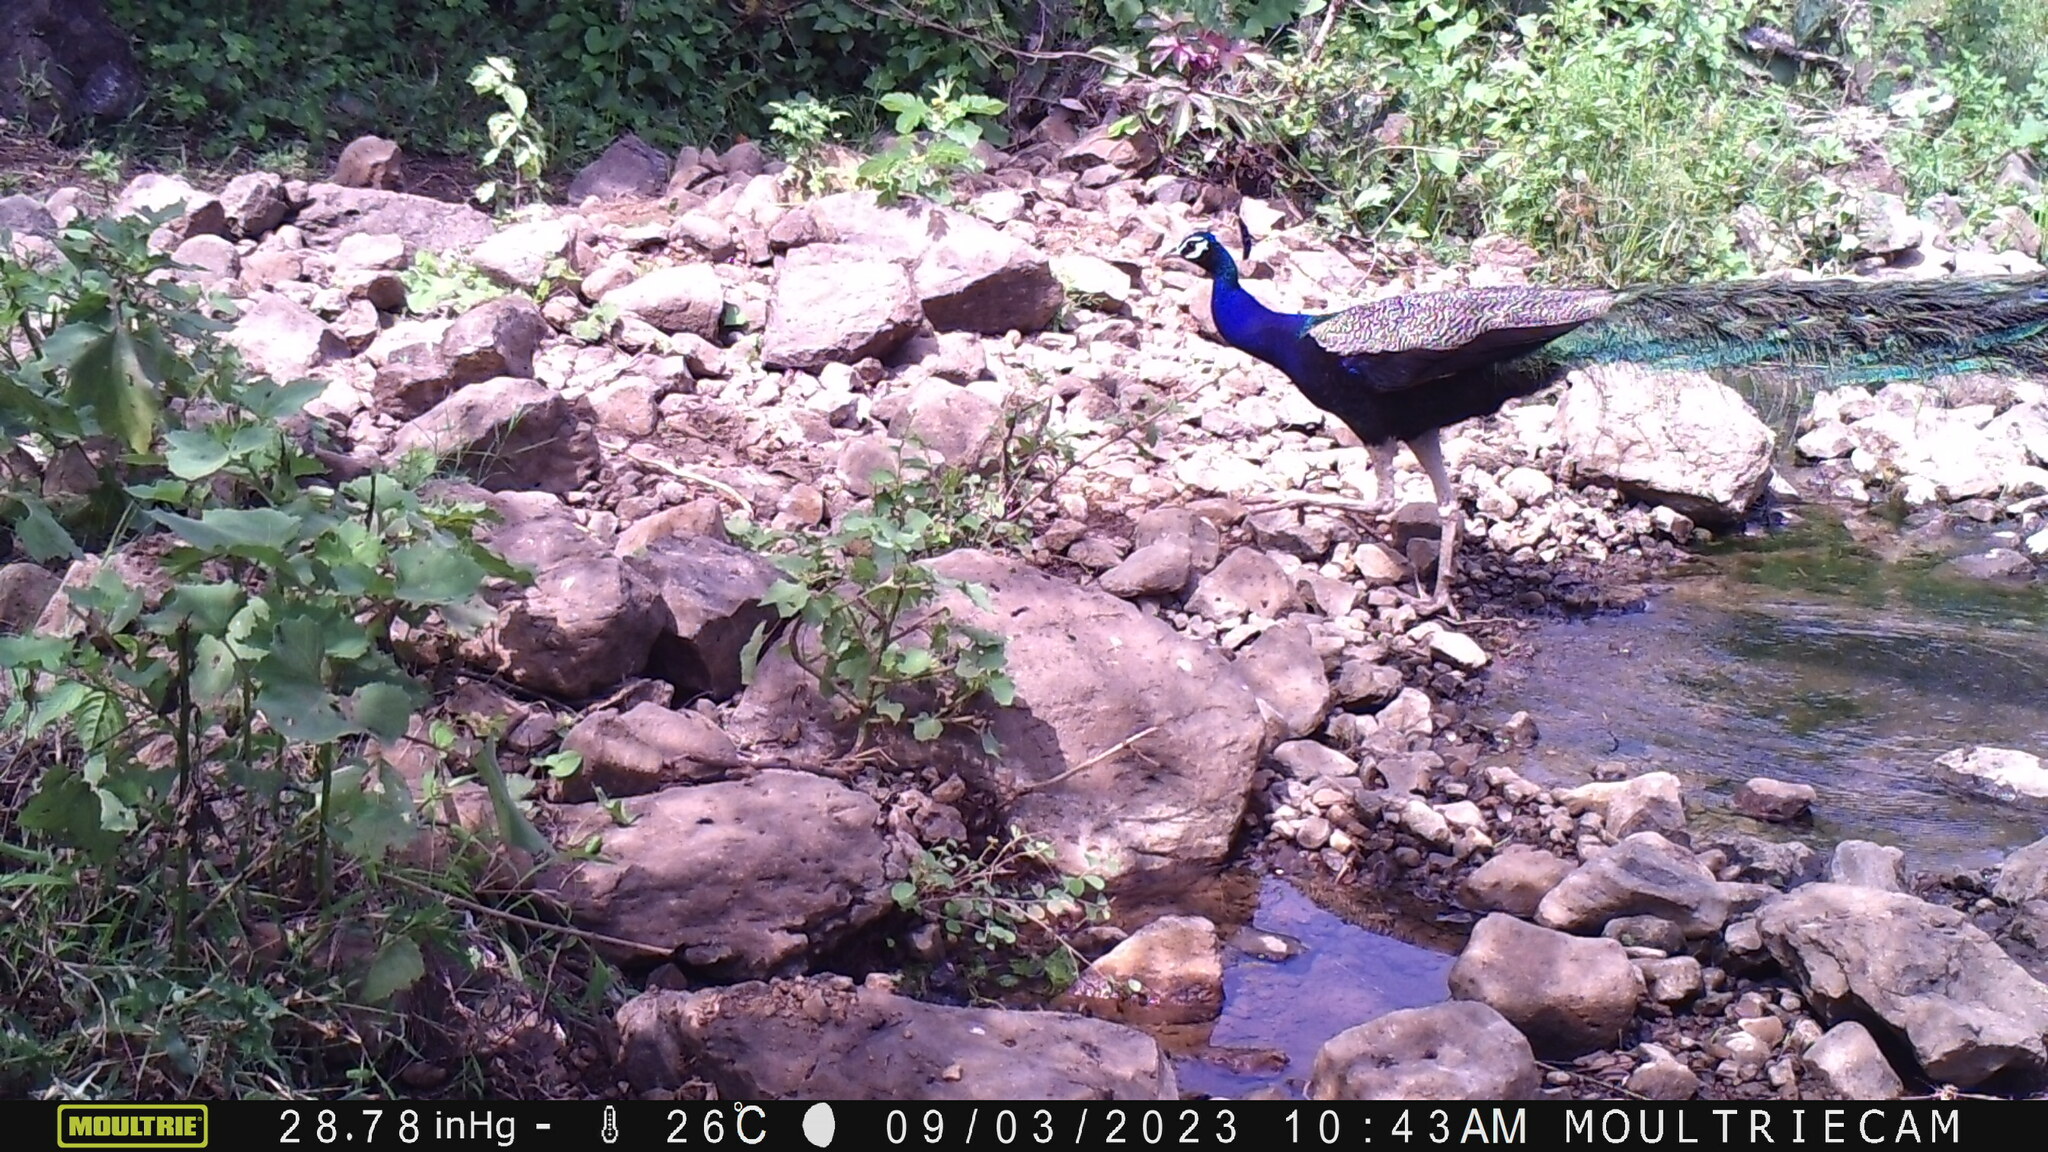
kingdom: Animalia
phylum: Chordata
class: Aves
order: Galliformes
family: Phasianidae
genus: Pavo
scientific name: Pavo cristatus
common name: Indian peafowl
